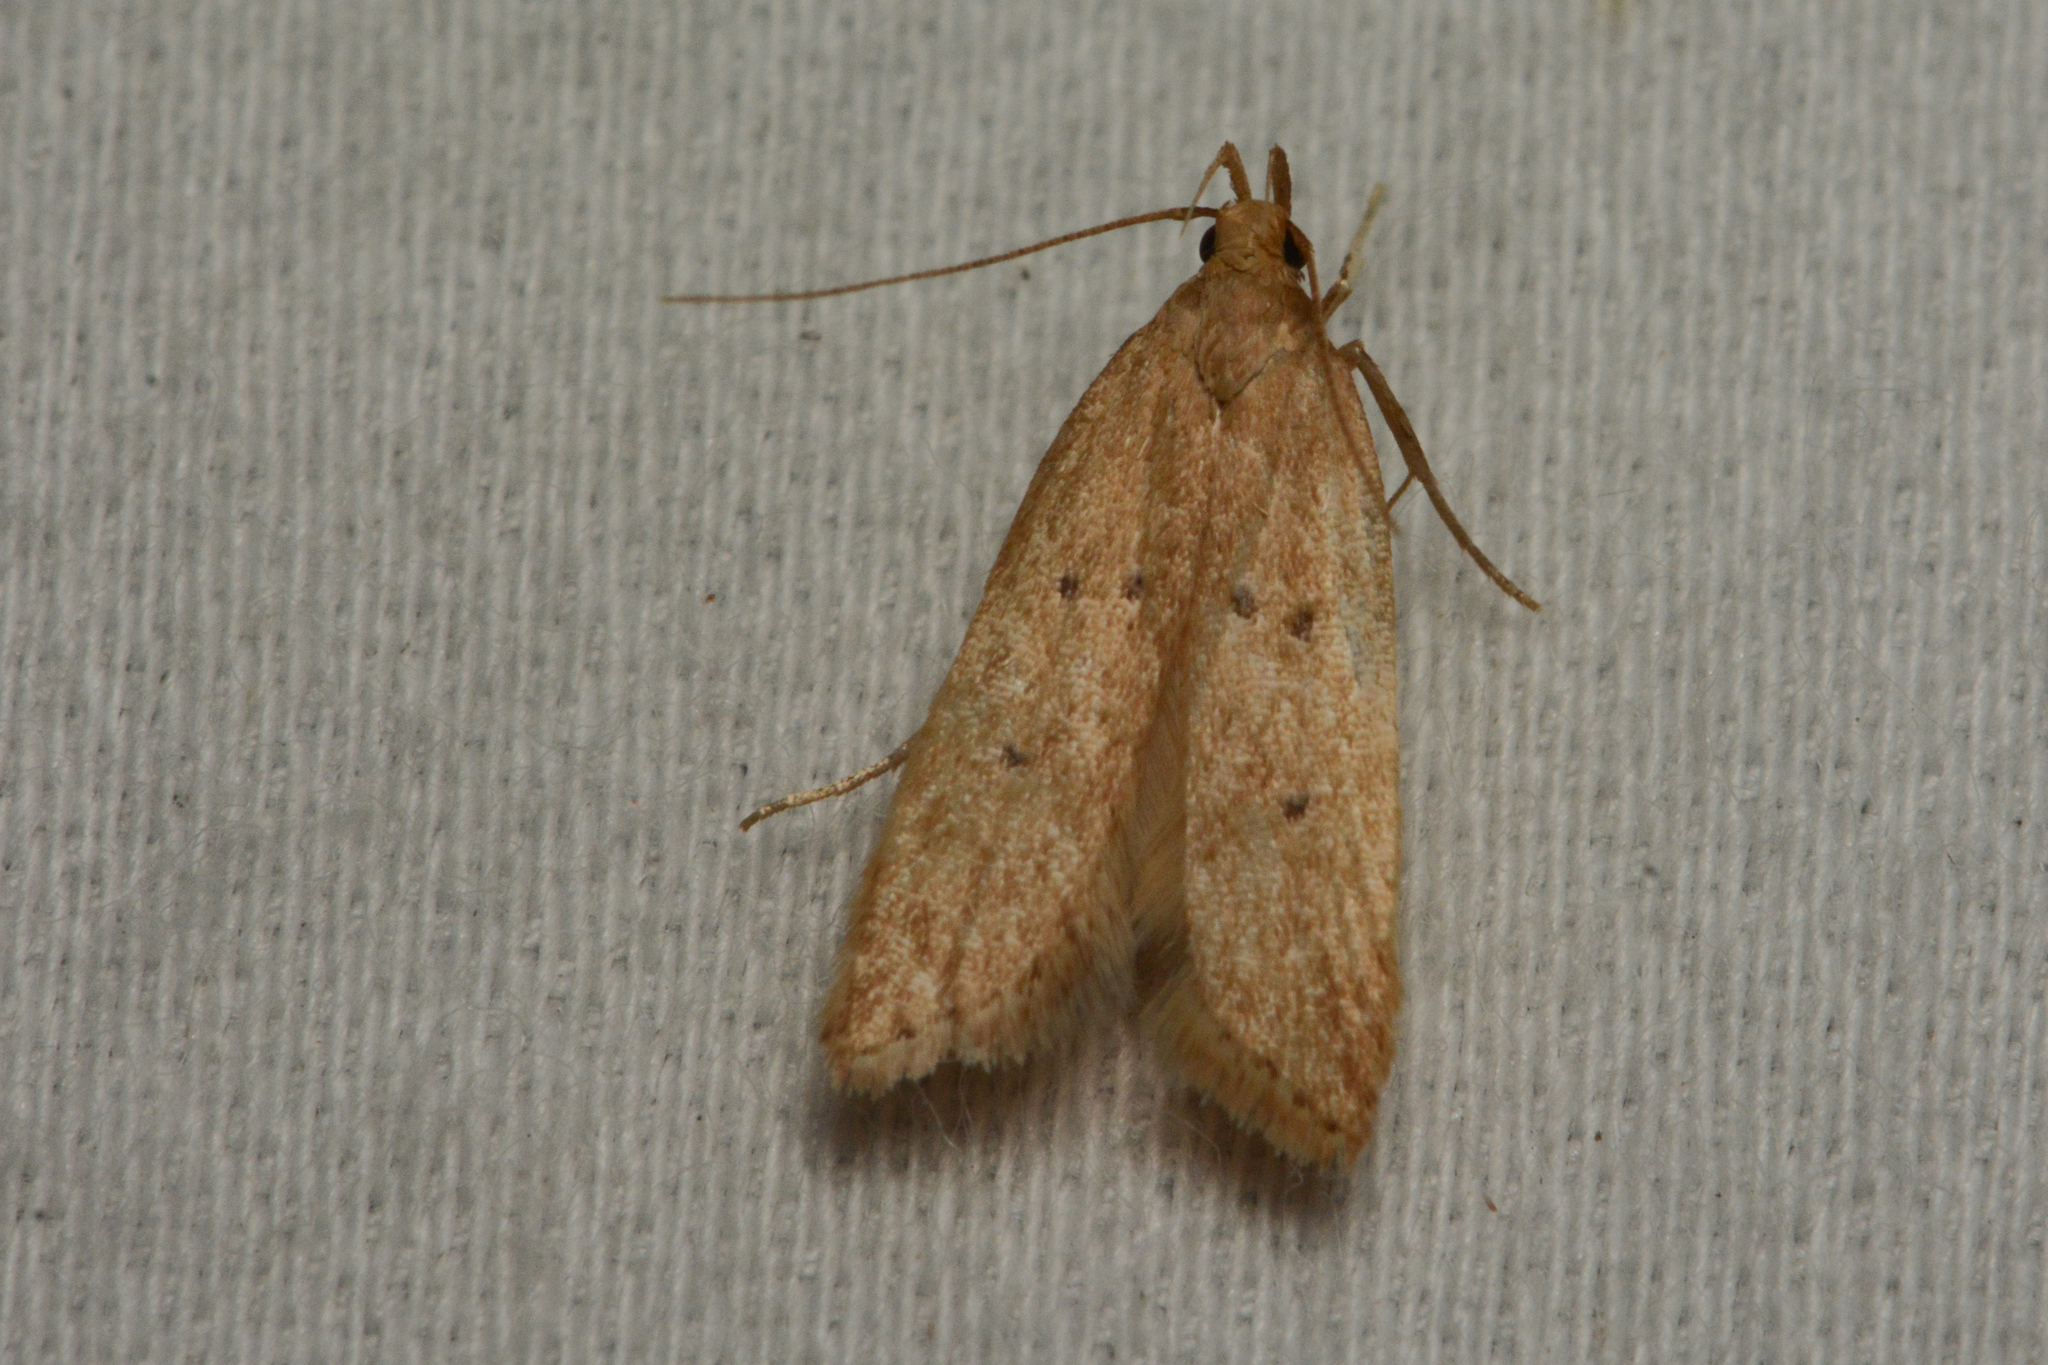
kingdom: Animalia
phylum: Arthropoda
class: Insecta
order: Lepidoptera
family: Gelechiidae
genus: Helcystogramma
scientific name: Helcystogramma badia
